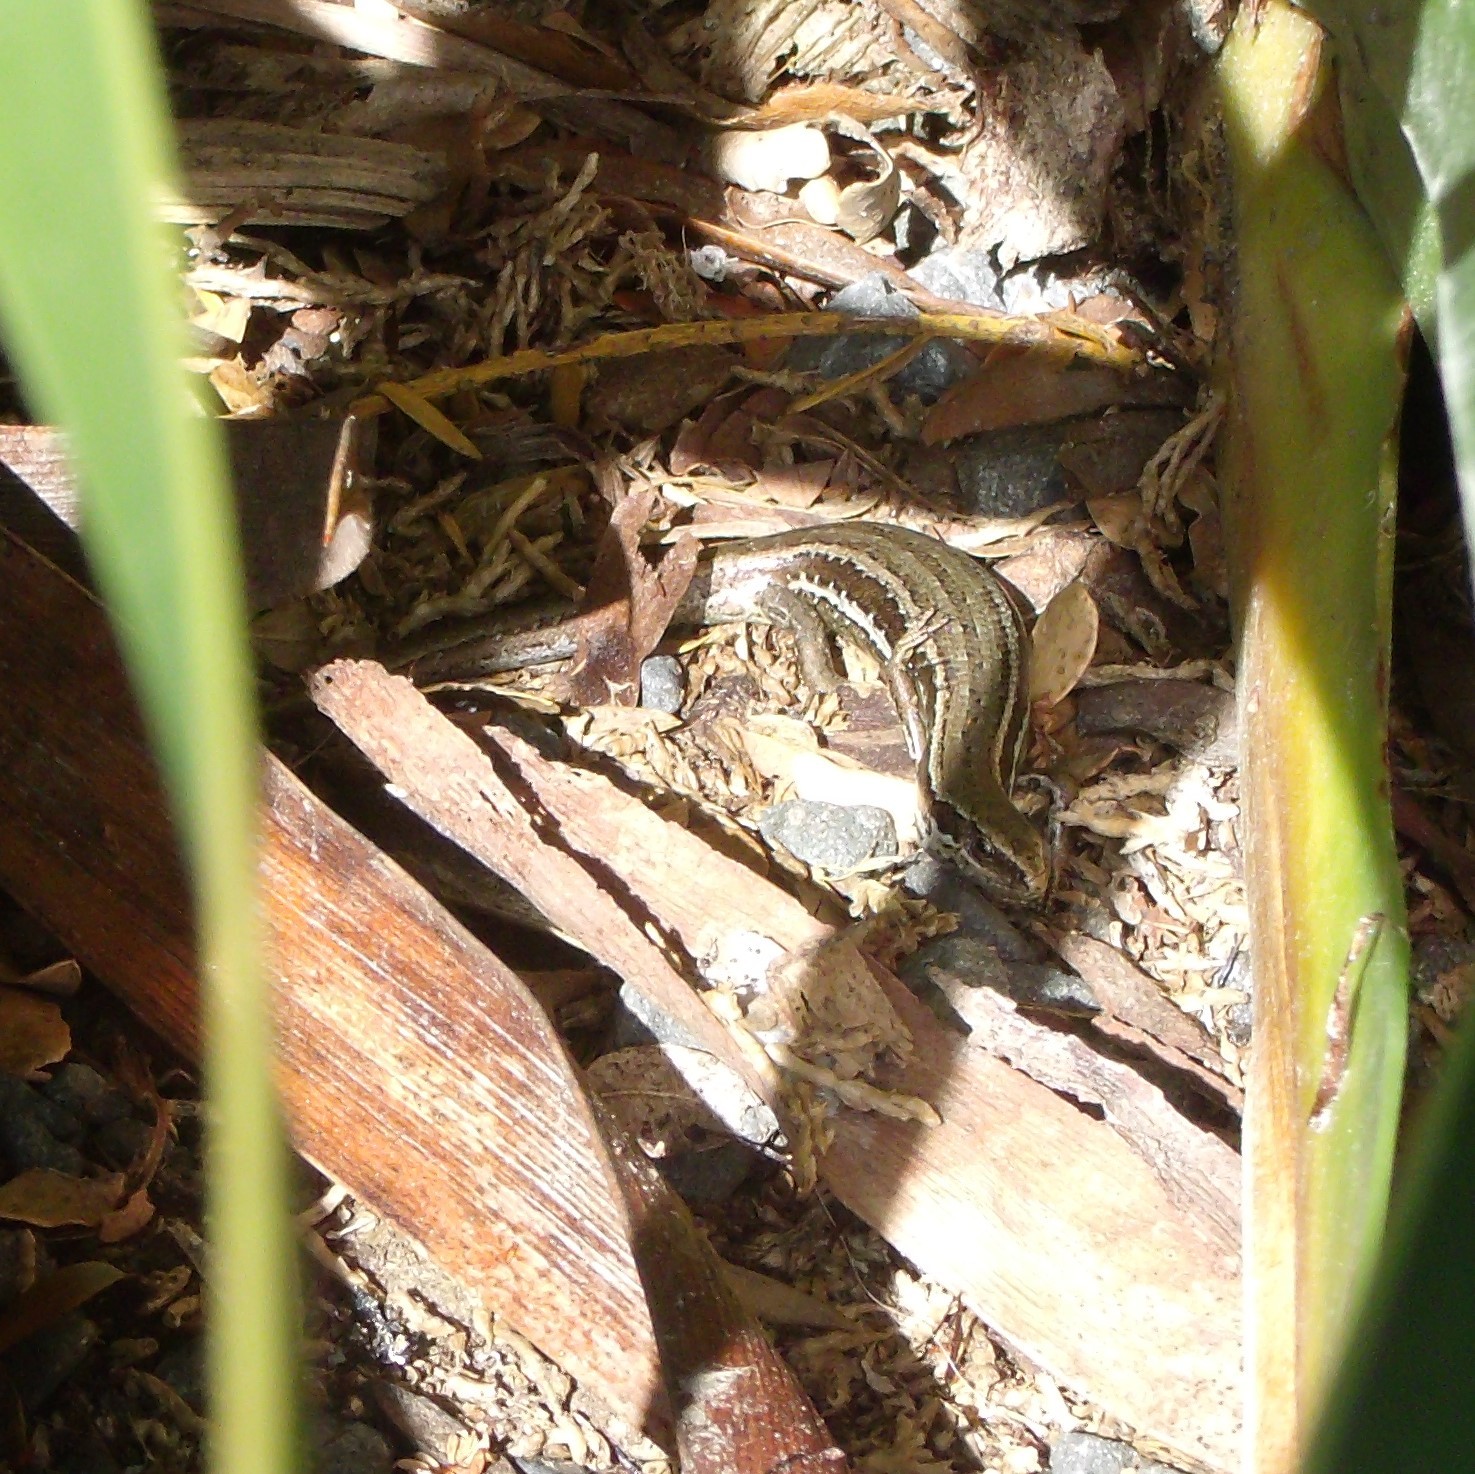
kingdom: Animalia
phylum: Chordata
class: Squamata
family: Scincidae
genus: Oligosoma
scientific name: Oligosoma polychroma
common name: Common new zealand skink
